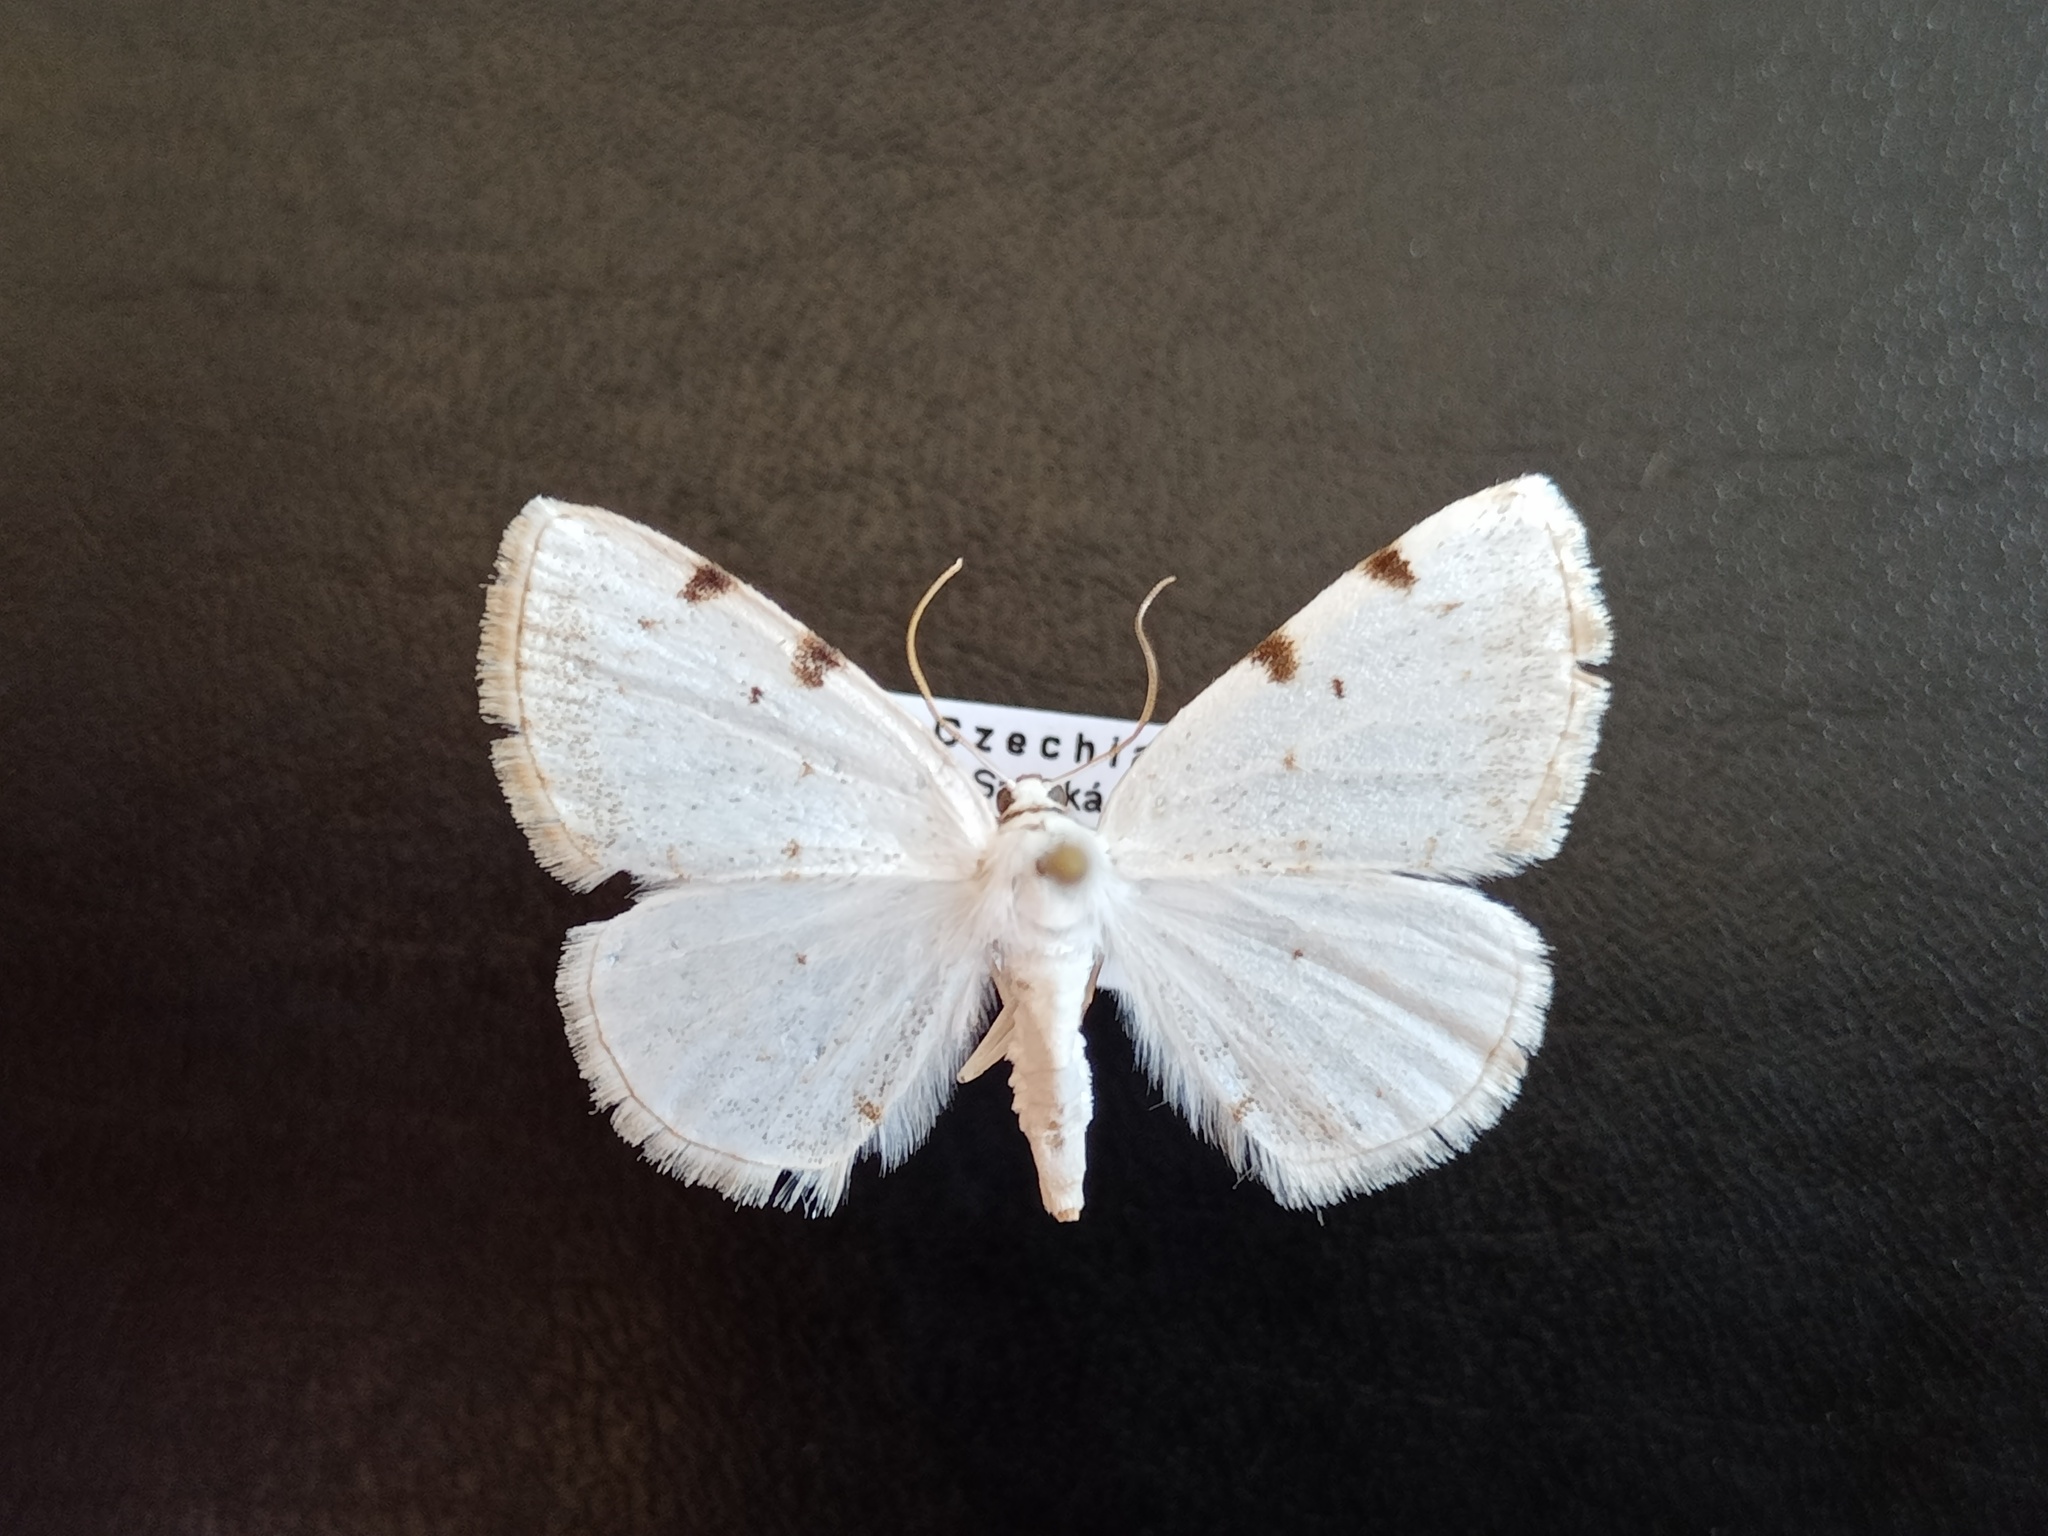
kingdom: Animalia
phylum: Arthropoda
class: Insecta
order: Lepidoptera
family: Geometridae
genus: Lomographa
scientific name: Lomographa bimaculata
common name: White-pinion spotted
